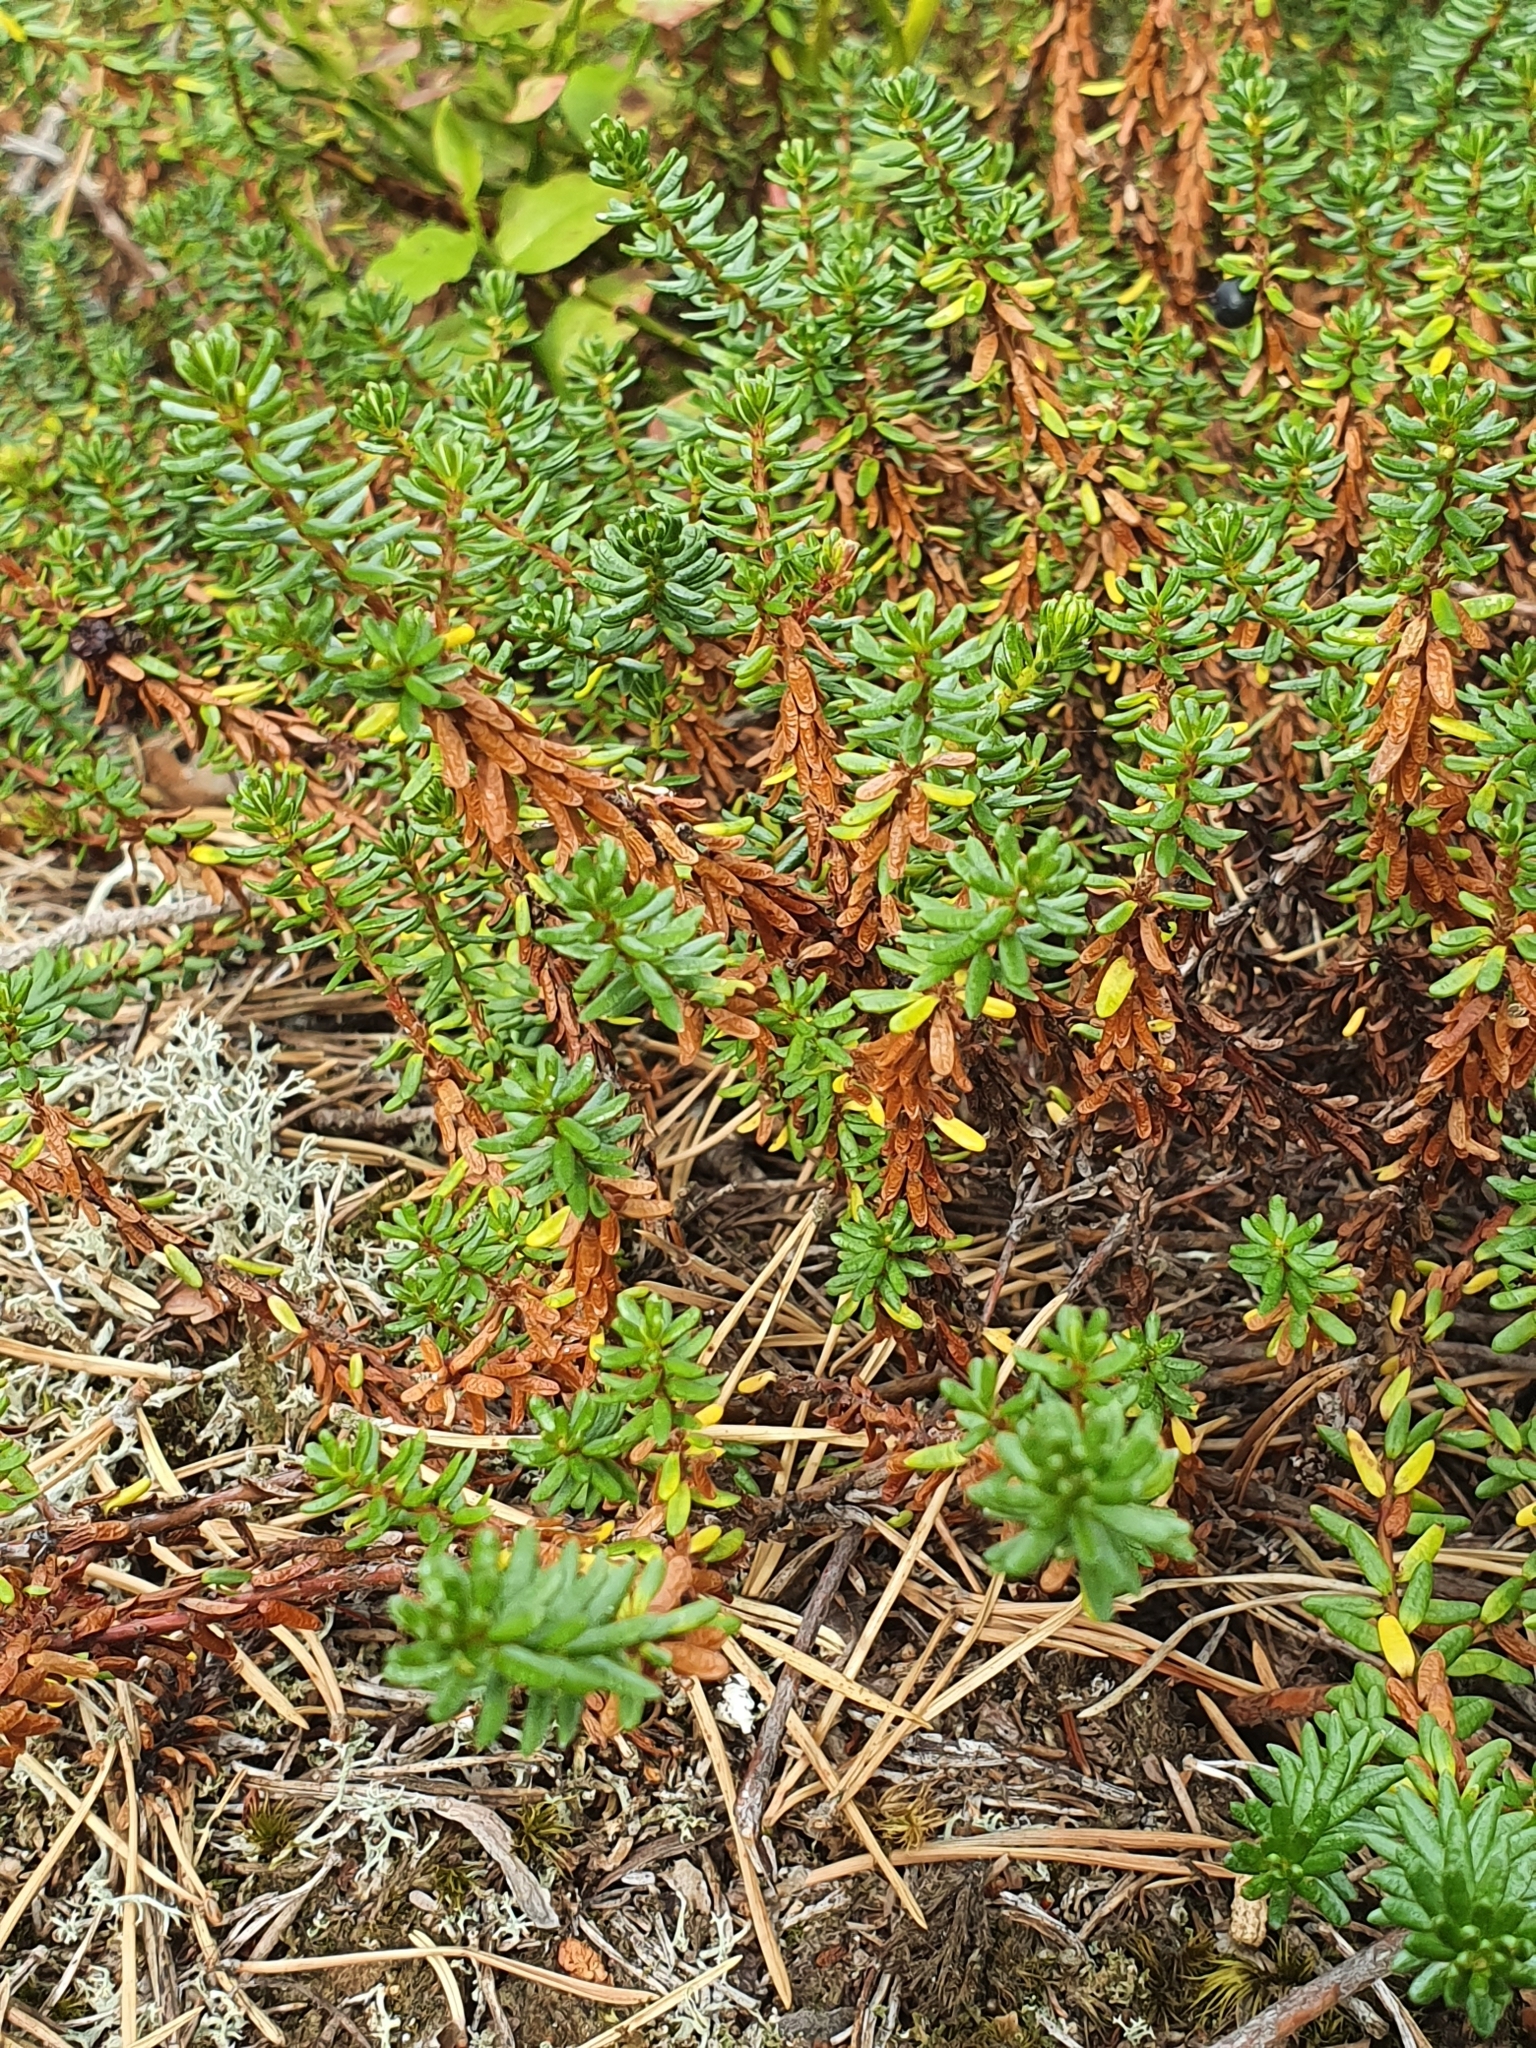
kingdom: Plantae
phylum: Tracheophyta
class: Magnoliopsida
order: Ericales
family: Ericaceae
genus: Empetrum
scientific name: Empetrum nigrum
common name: Black crowberry
